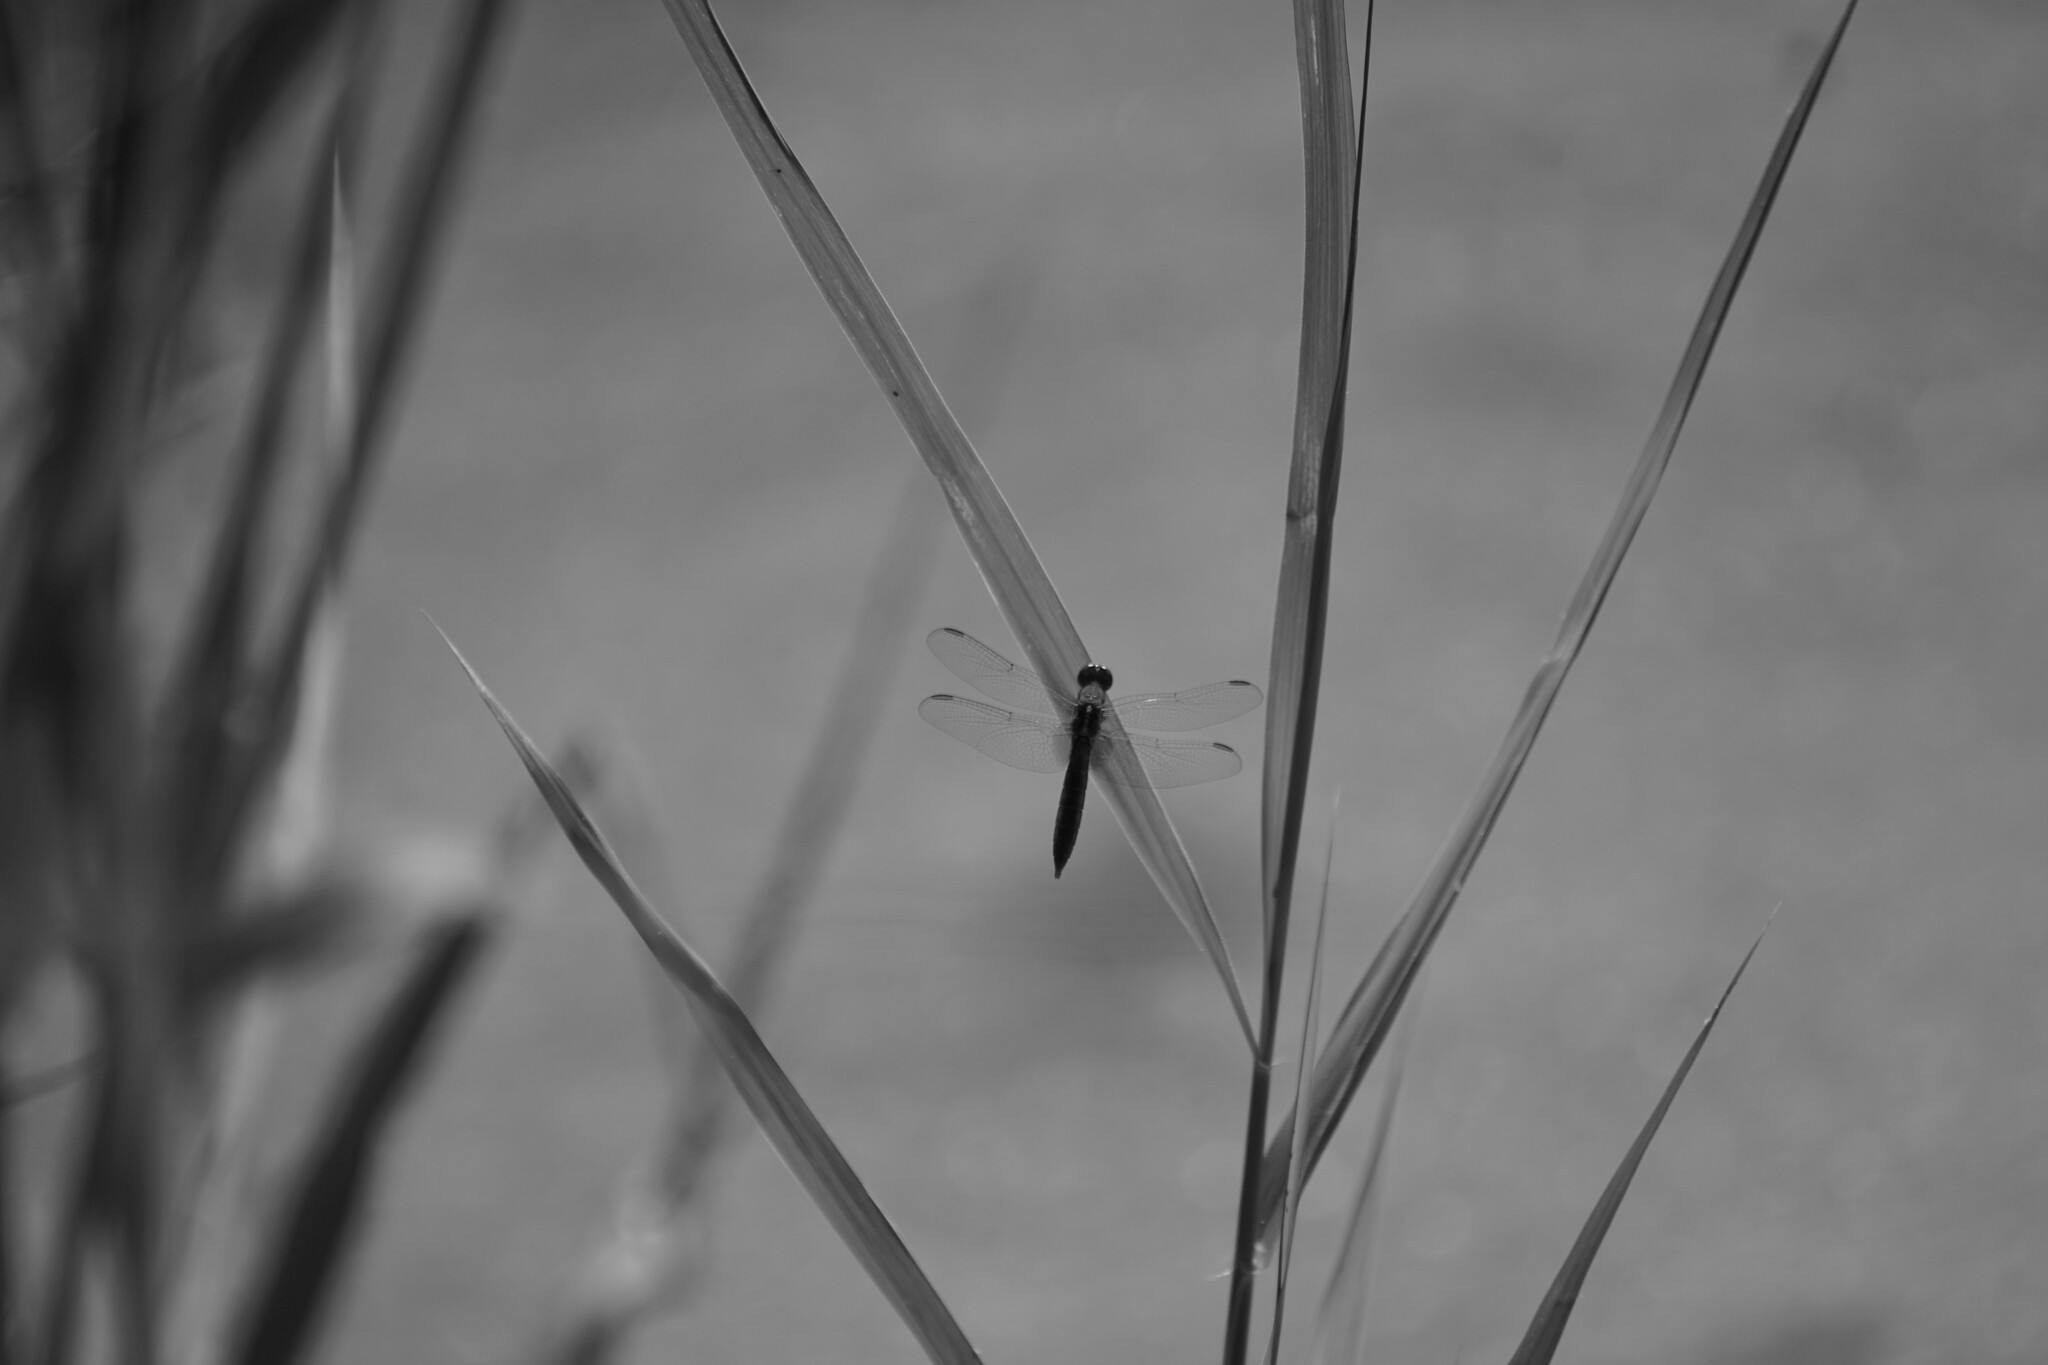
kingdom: Animalia
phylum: Arthropoda
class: Insecta
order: Odonata
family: Libellulidae
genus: Crocothemis
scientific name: Crocothemis erythraea
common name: Scarlet dragonfly
